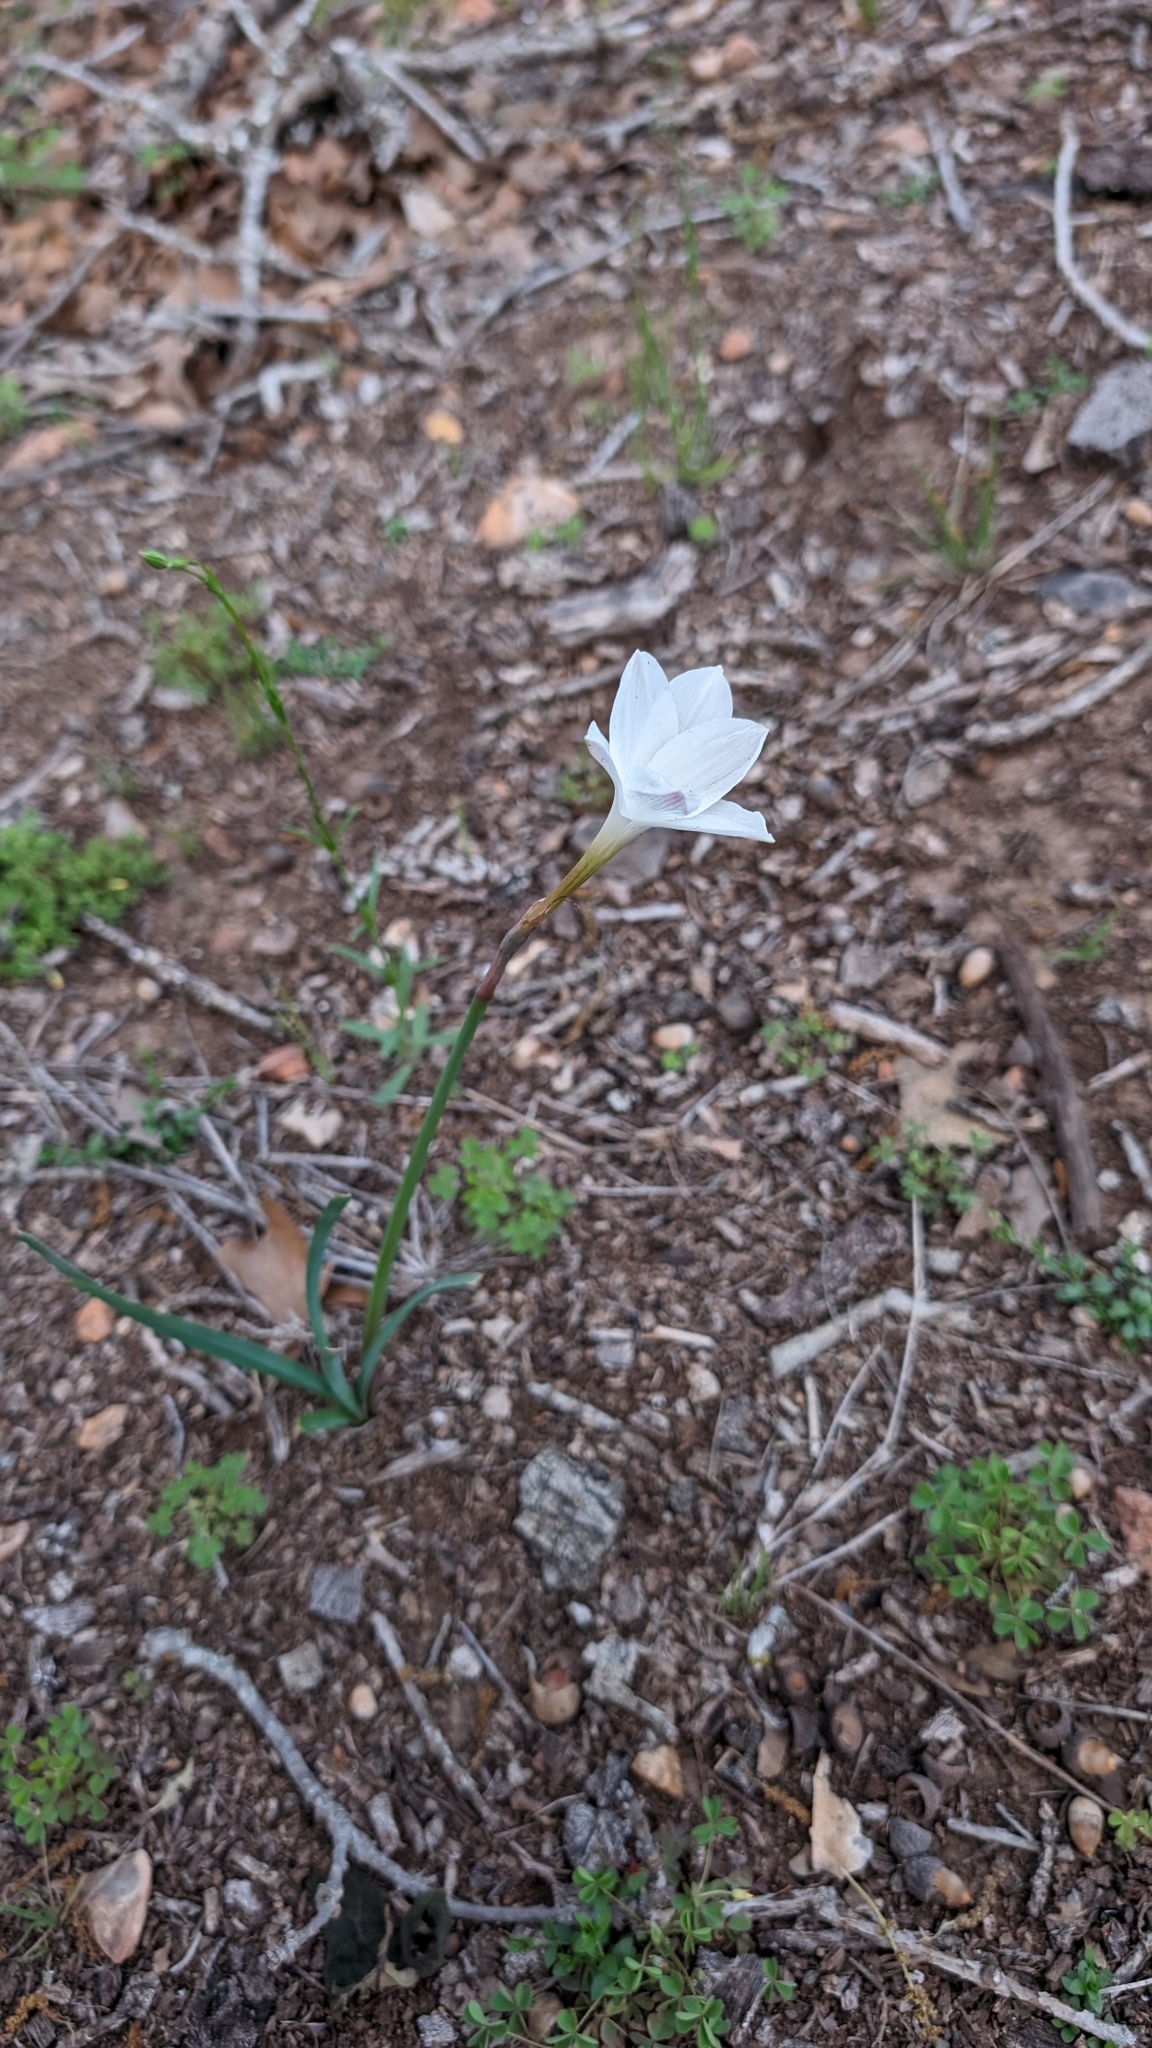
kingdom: Plantae
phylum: Tracheophyta
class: Liliopsida
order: Asparagales
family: Amaryllidaceae
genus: Zephyranthes
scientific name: Zephyranthes drummondii
